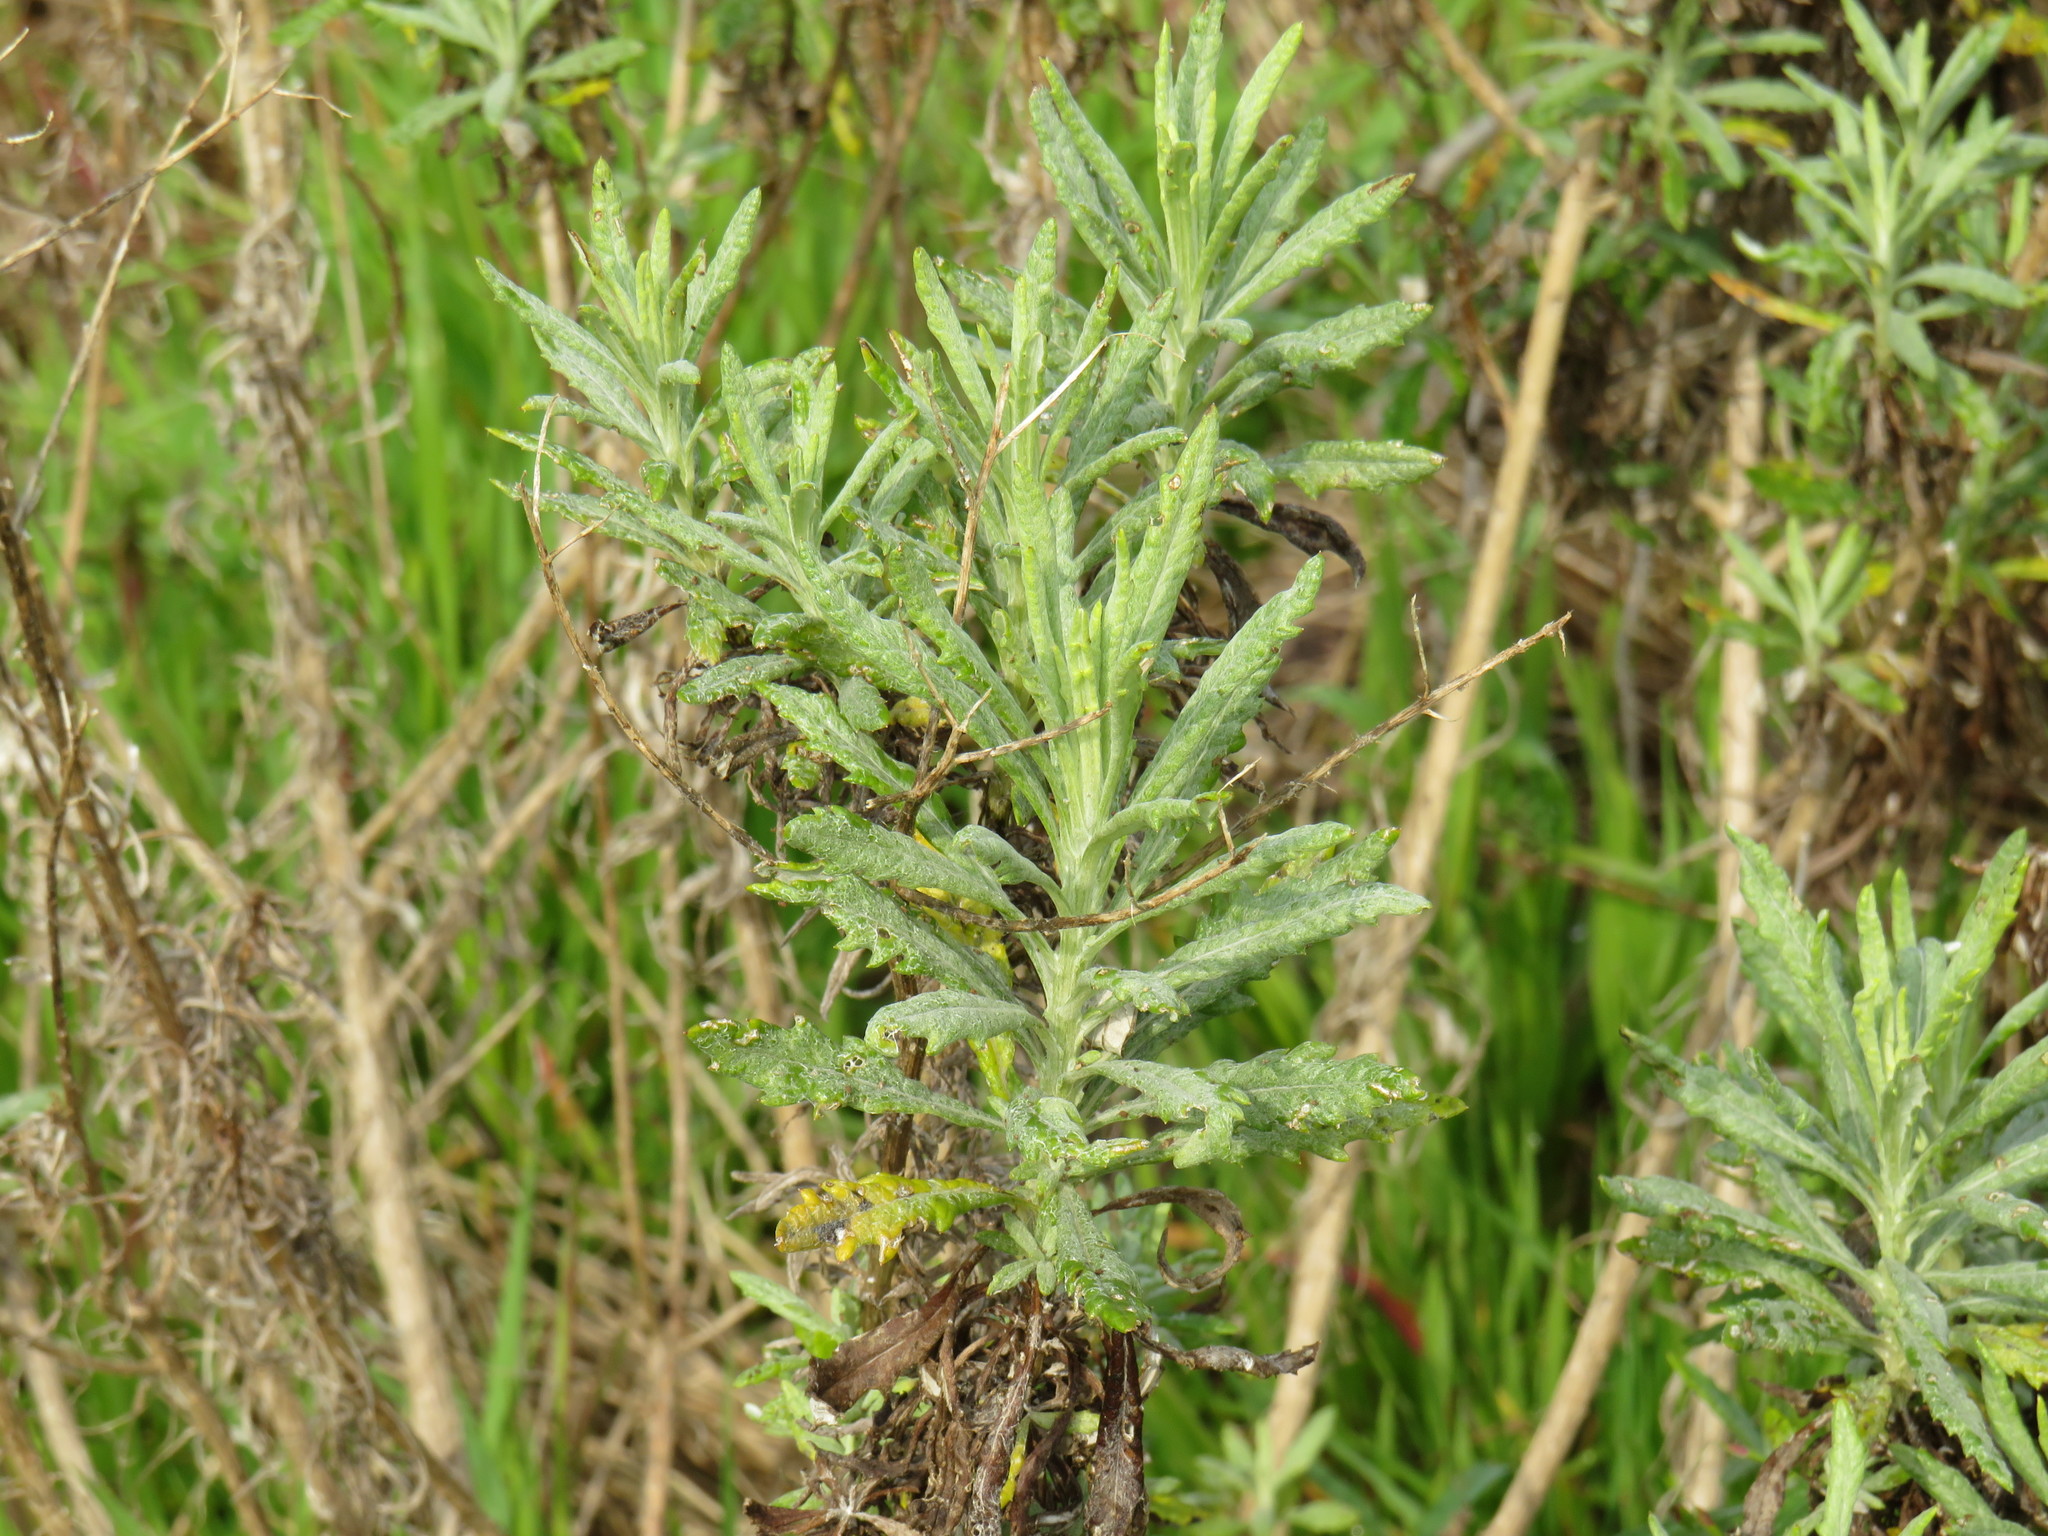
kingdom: Plantae
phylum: Tracheophyta
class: Magnoliopsida
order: Asterales
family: Asteraceae
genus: Senecio
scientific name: Senecio pterophorus
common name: Shoddy ragwort
